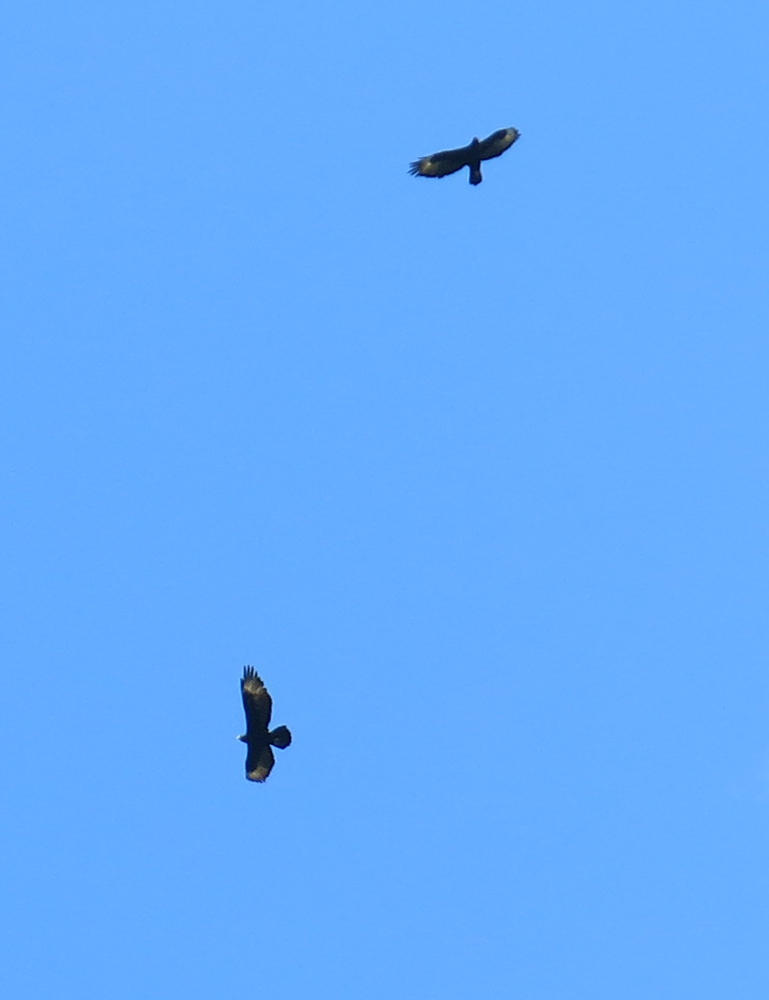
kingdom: Animalia
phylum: Chordata
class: Aves
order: Accipitriformes
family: Accipitridae
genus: Aquila
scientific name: Aquila verreauxii
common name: Verreaux's eagle
